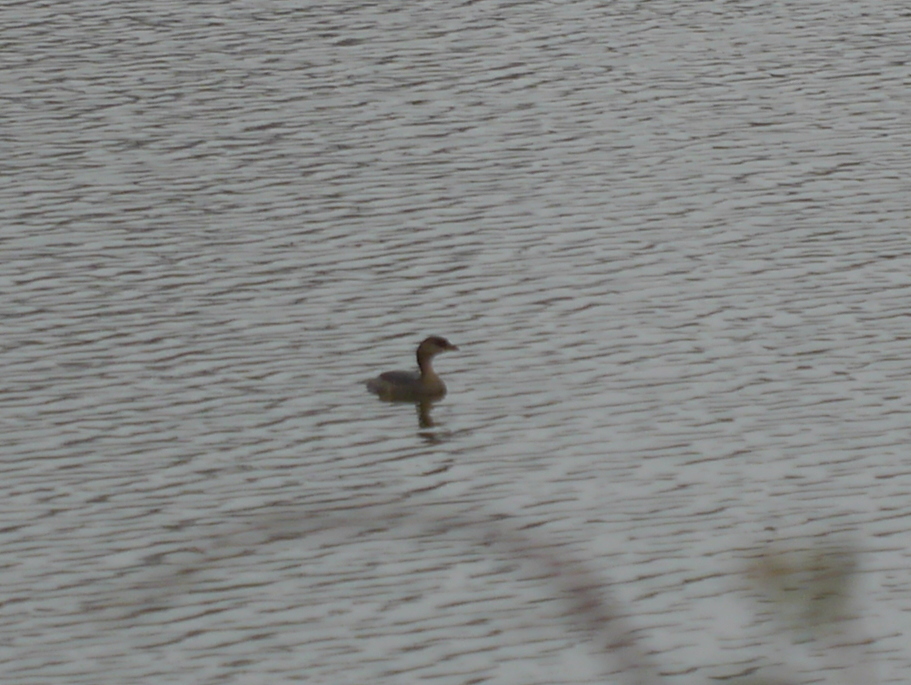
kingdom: Animalia
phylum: Chordata
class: Aves
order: Podicipediformes
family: Podicipedidae
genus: Podilymbus
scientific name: Podilymbus podiceps
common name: Pied-billed grebe
